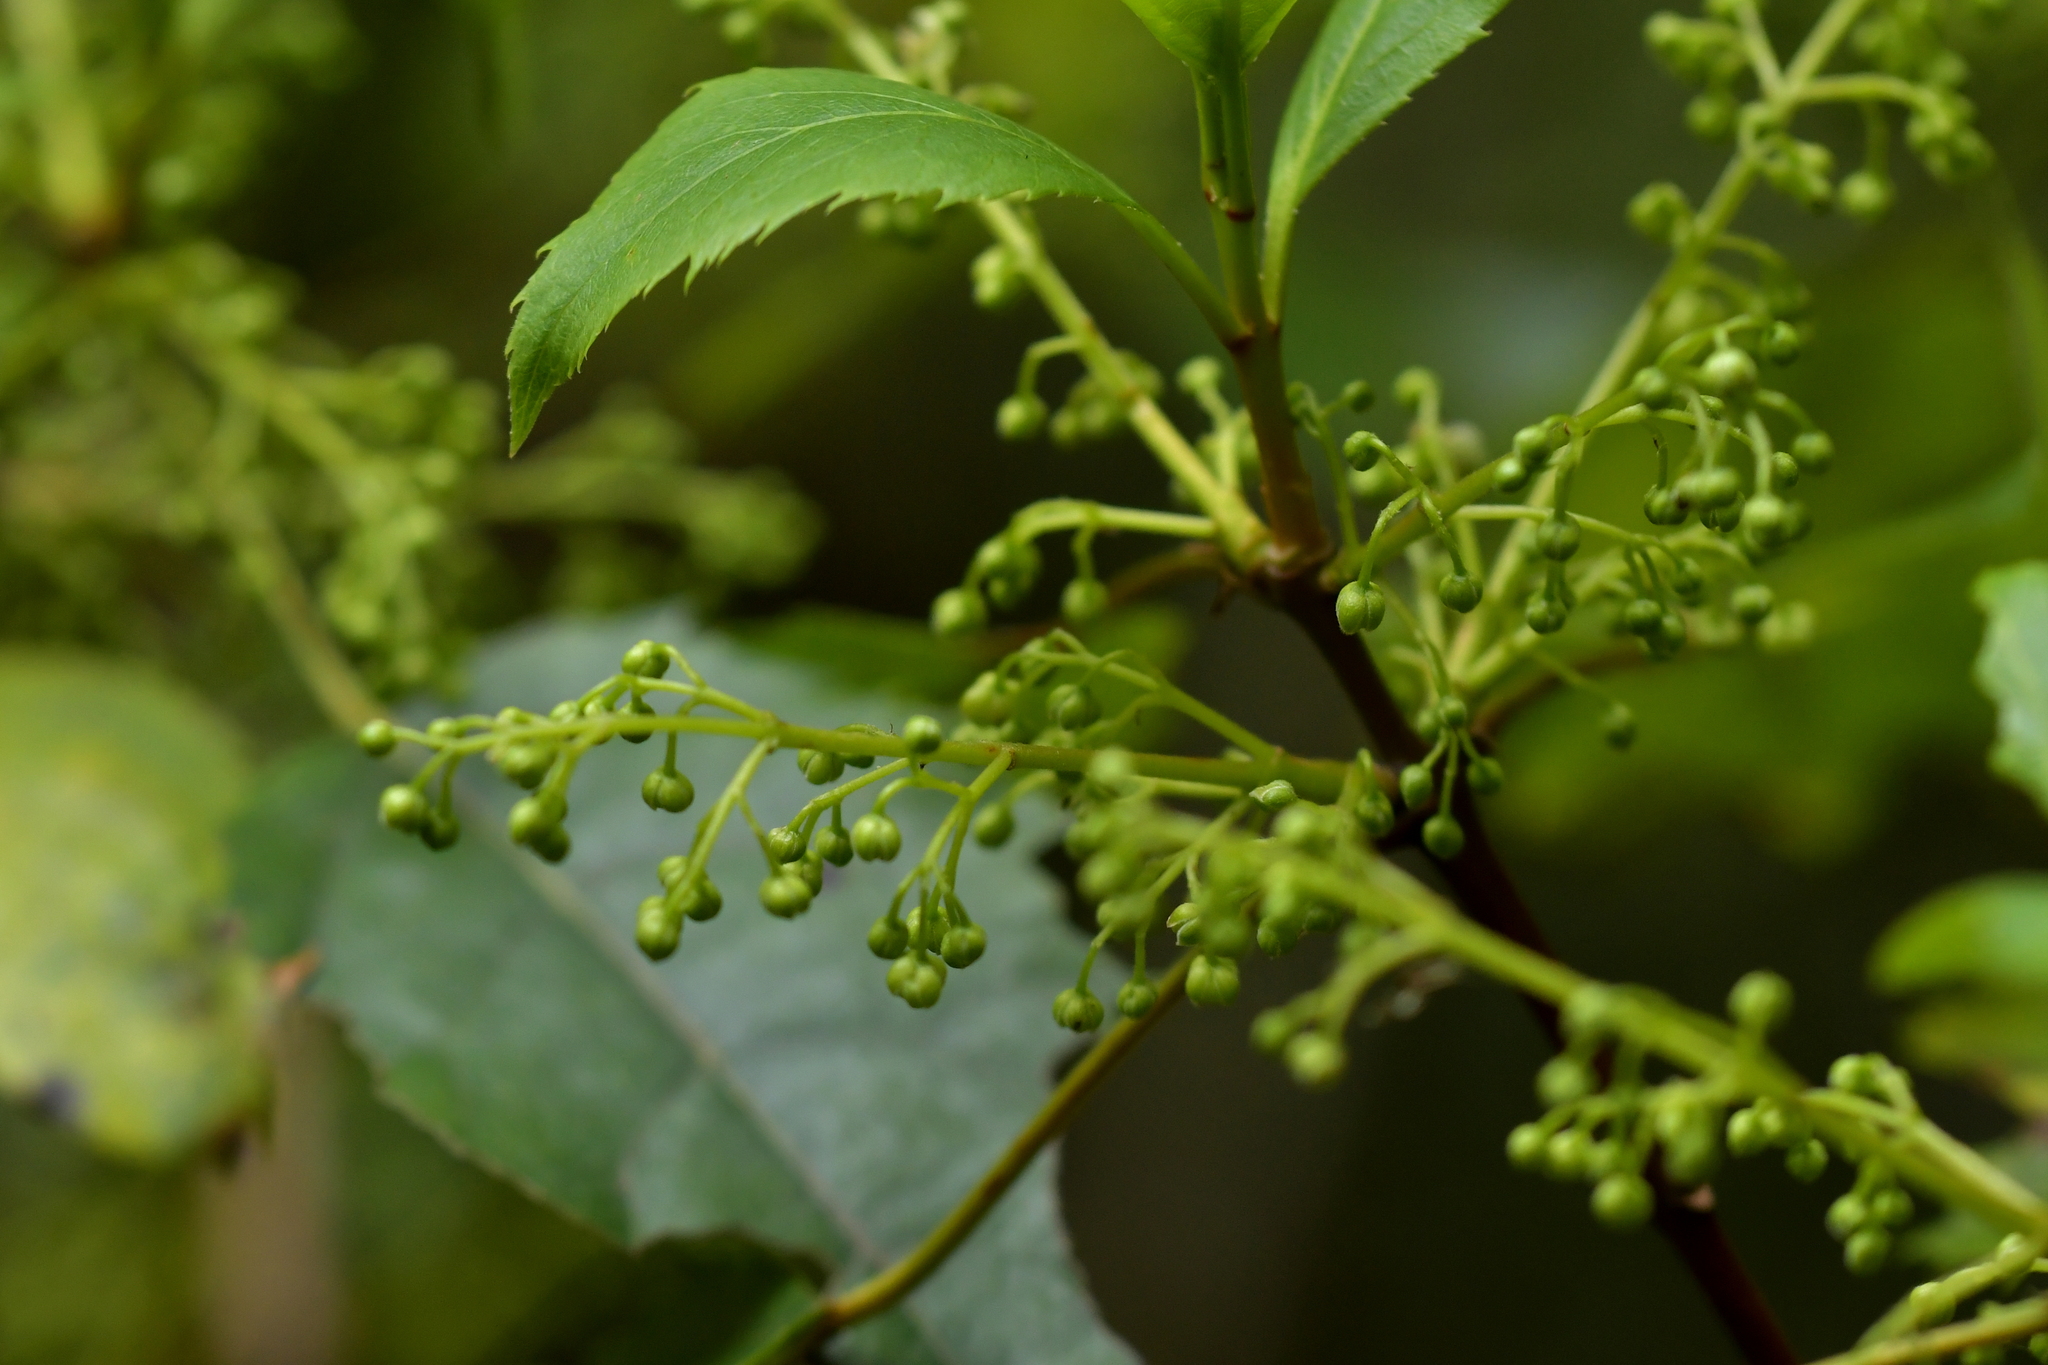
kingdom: Plantae
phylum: Tracheophyta
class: Magnoliopsida
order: Oxalidales
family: Elaeocarpaceae
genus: Aristotelia
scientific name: Aristotelia serrata
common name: New zealand wineberry
